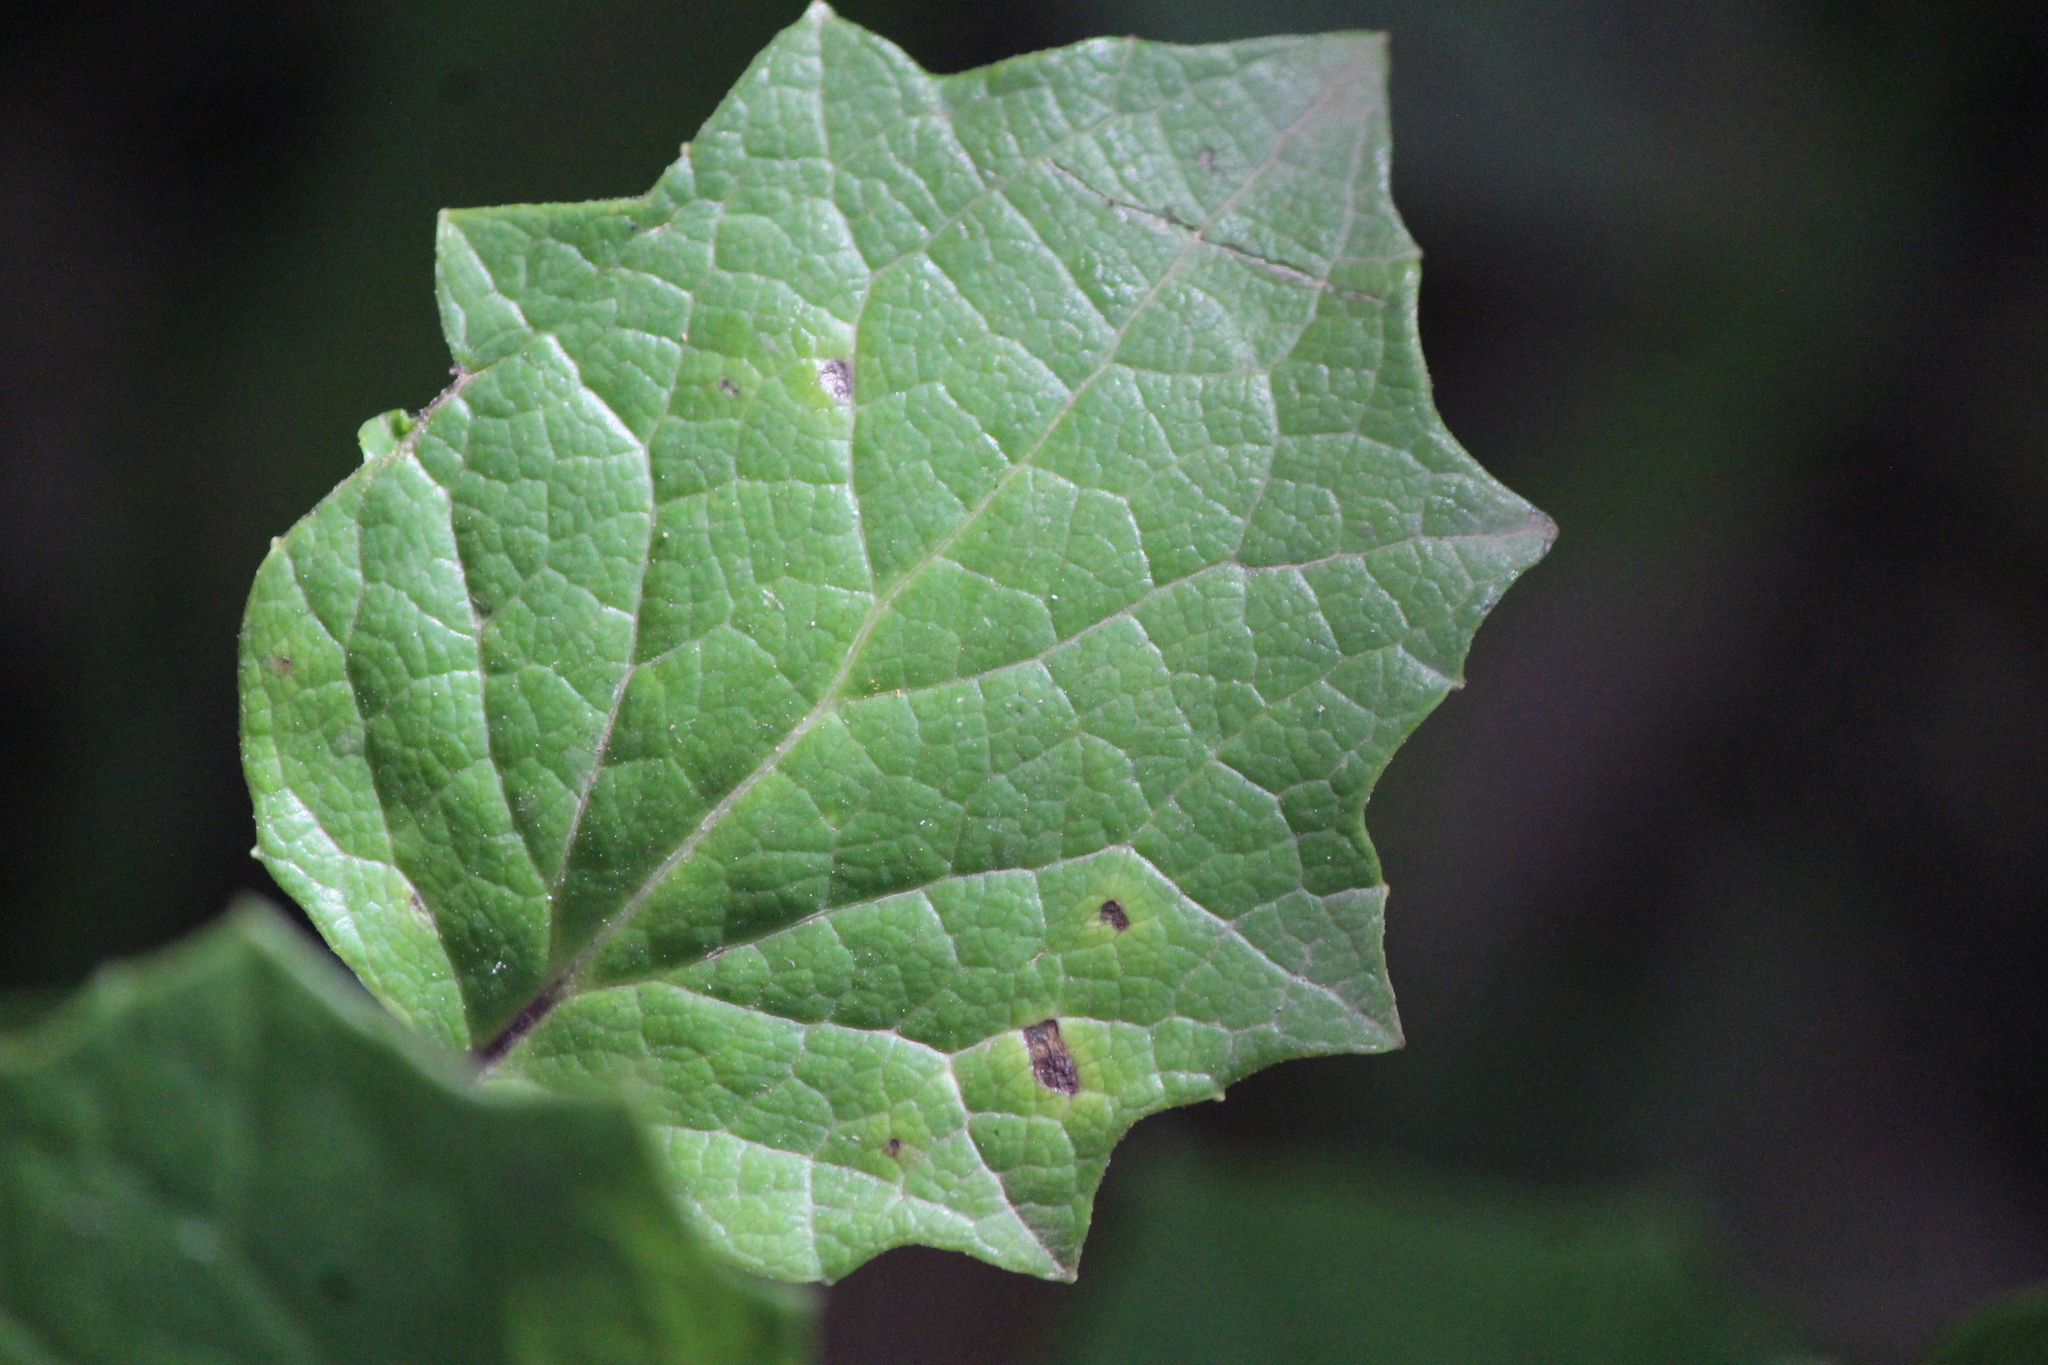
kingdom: Plantae
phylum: Tracheophyta
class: Magnoliopsida
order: Asterales
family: Asteraceae
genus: Roldana
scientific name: Roldana reticulata
